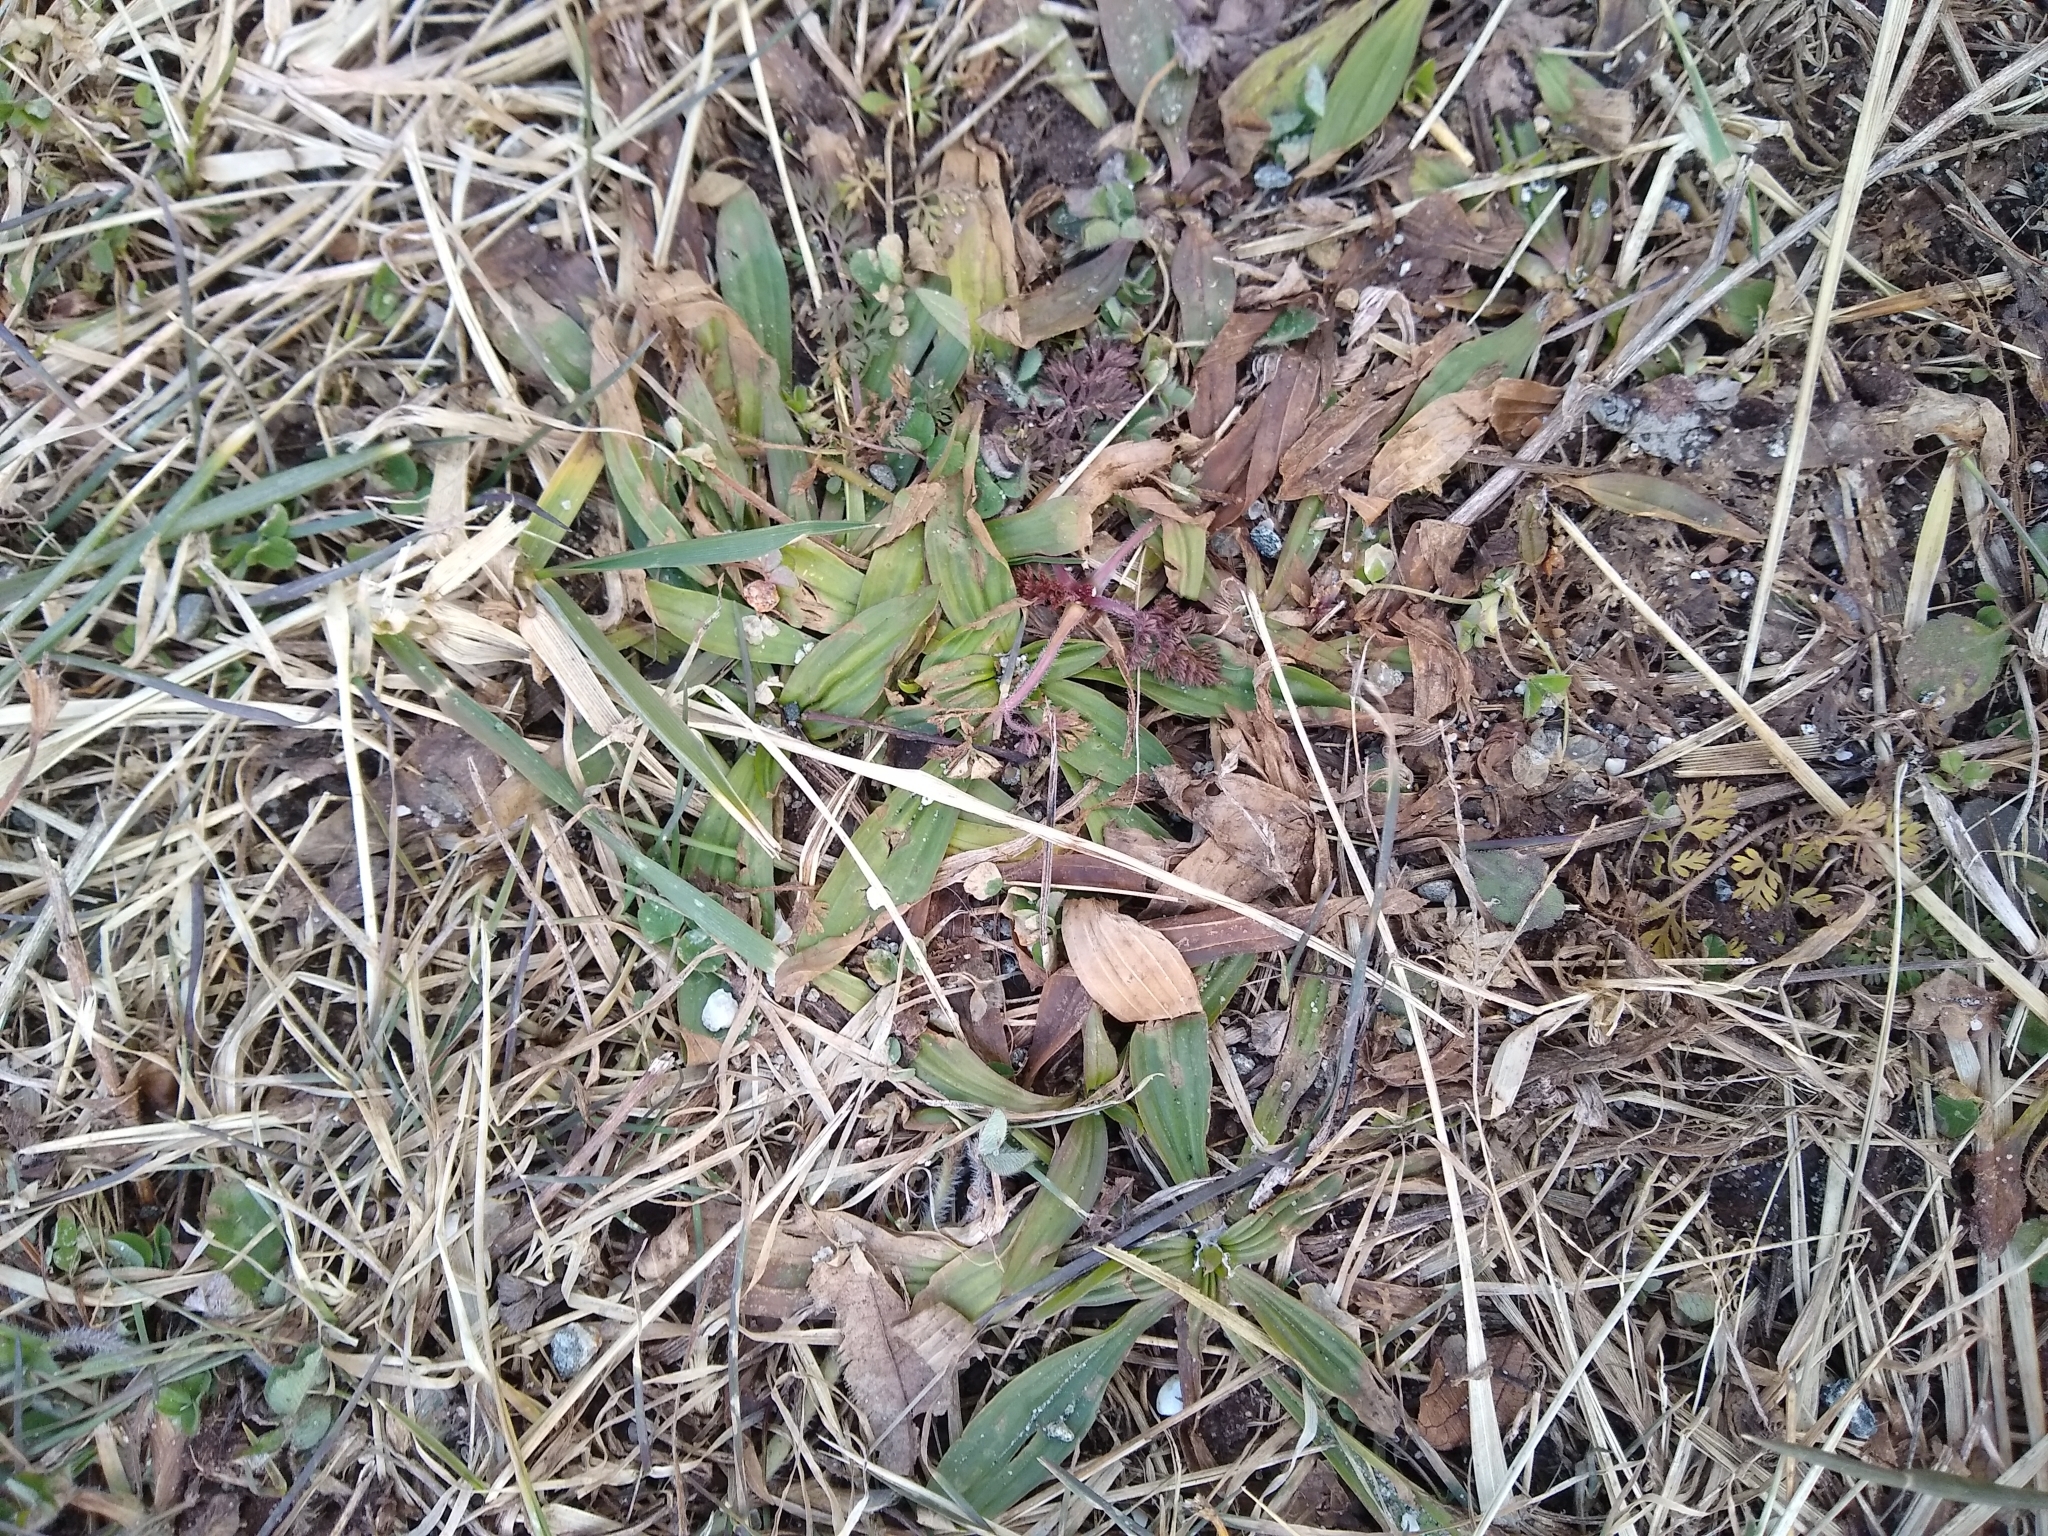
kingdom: Plantae
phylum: Tracheophyta
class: Magnoliopsida
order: Lamiales
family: Plantaginaceae
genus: Plantago
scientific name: Plantago lanceolata
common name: Ribwort plantain
